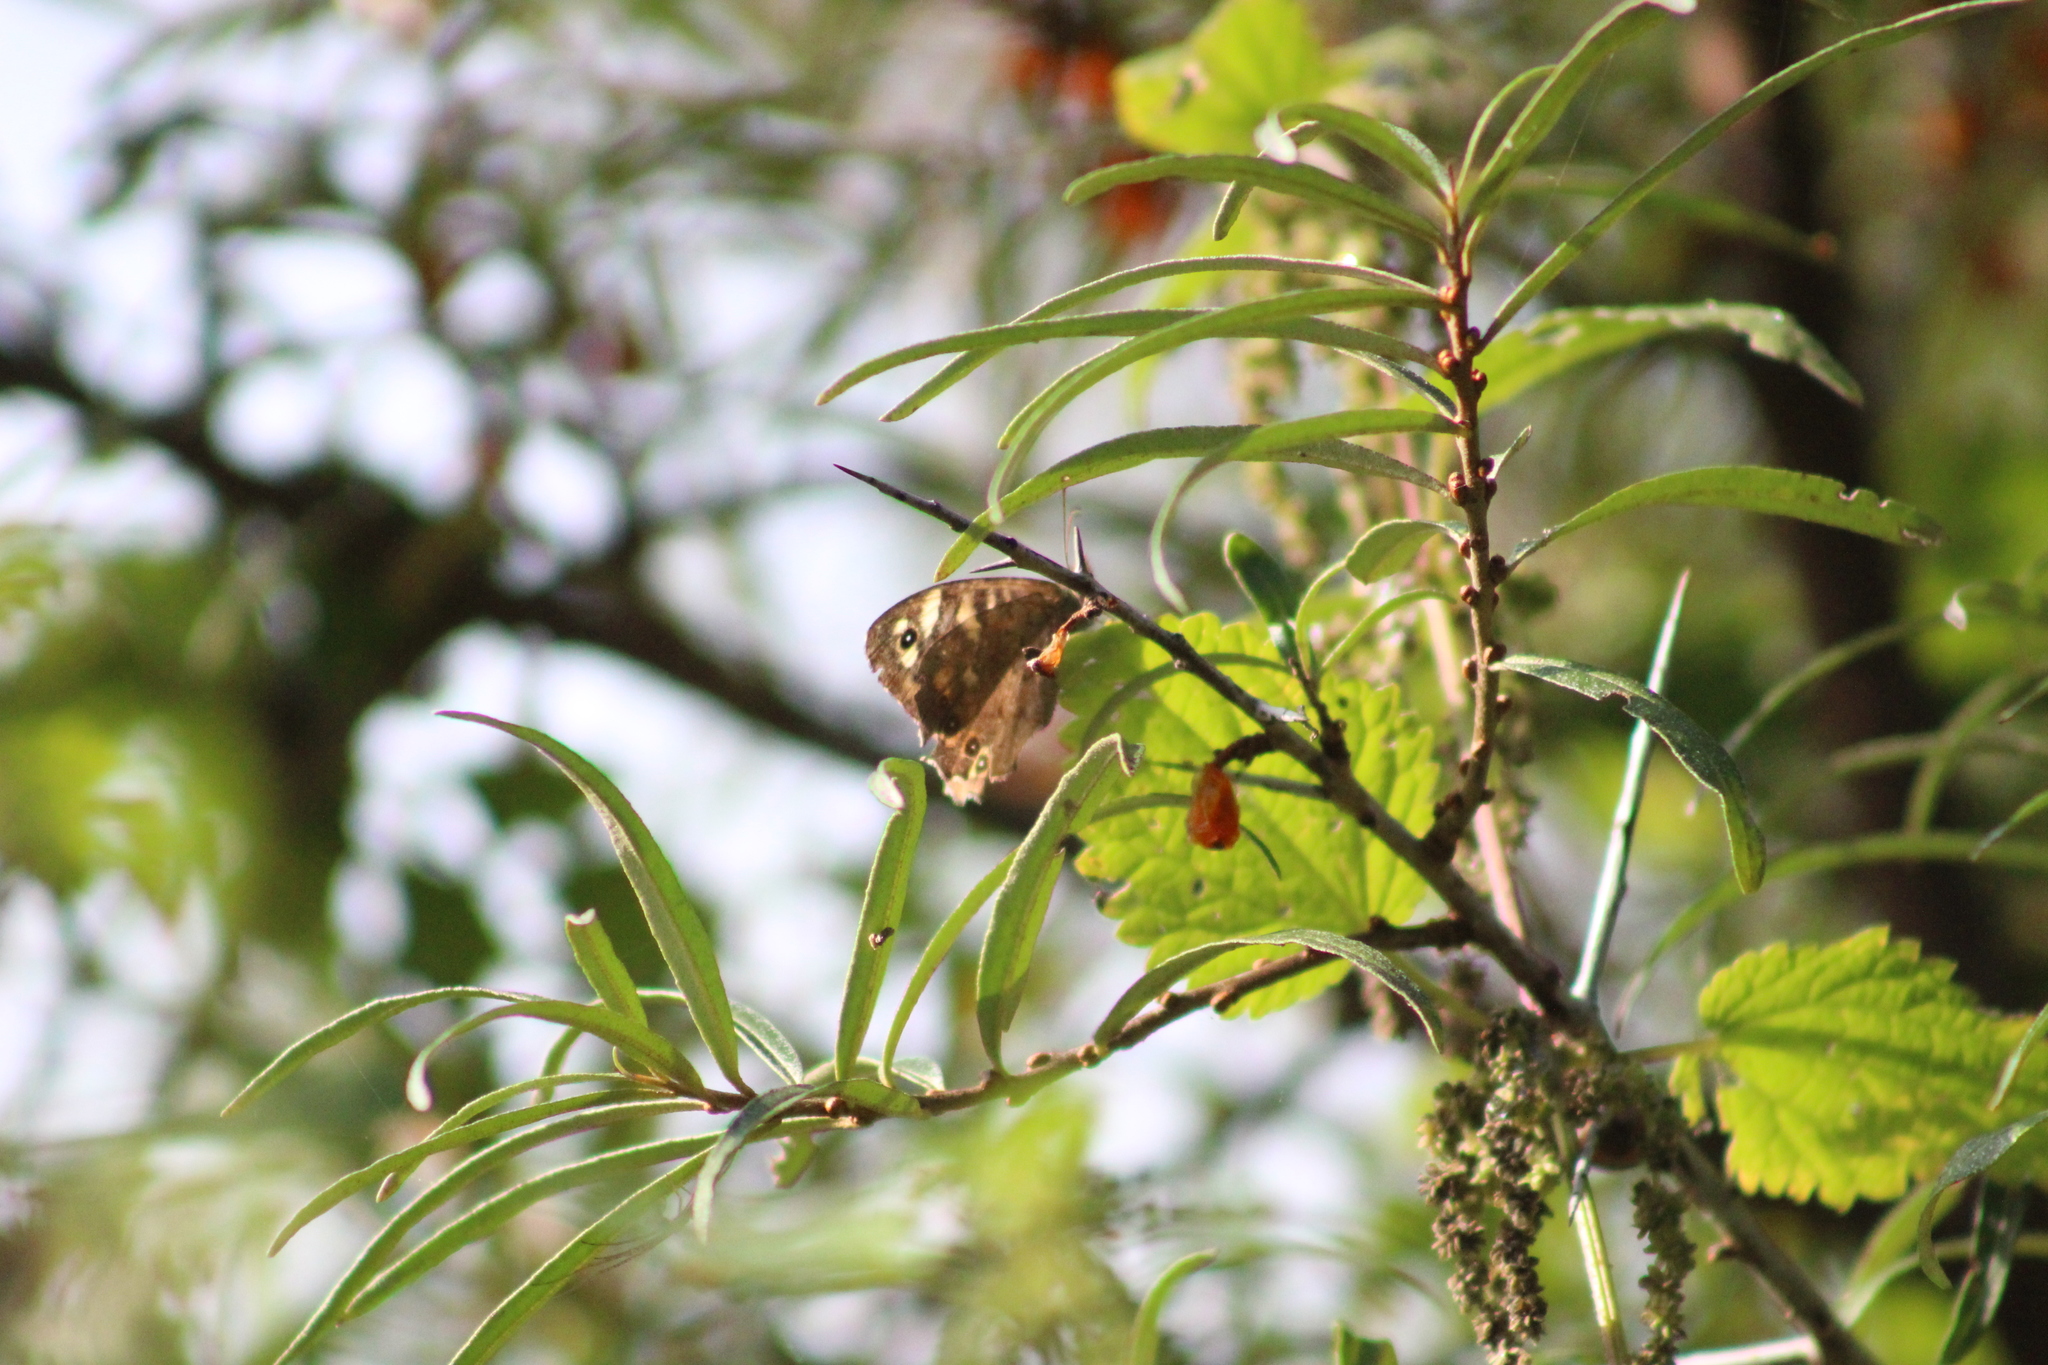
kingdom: Animalia
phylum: Arthropoda
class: Insecta
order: Lepidoptera
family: Nymphalidae
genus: Pararge
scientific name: Pararge aegeria
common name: Speckled wood
